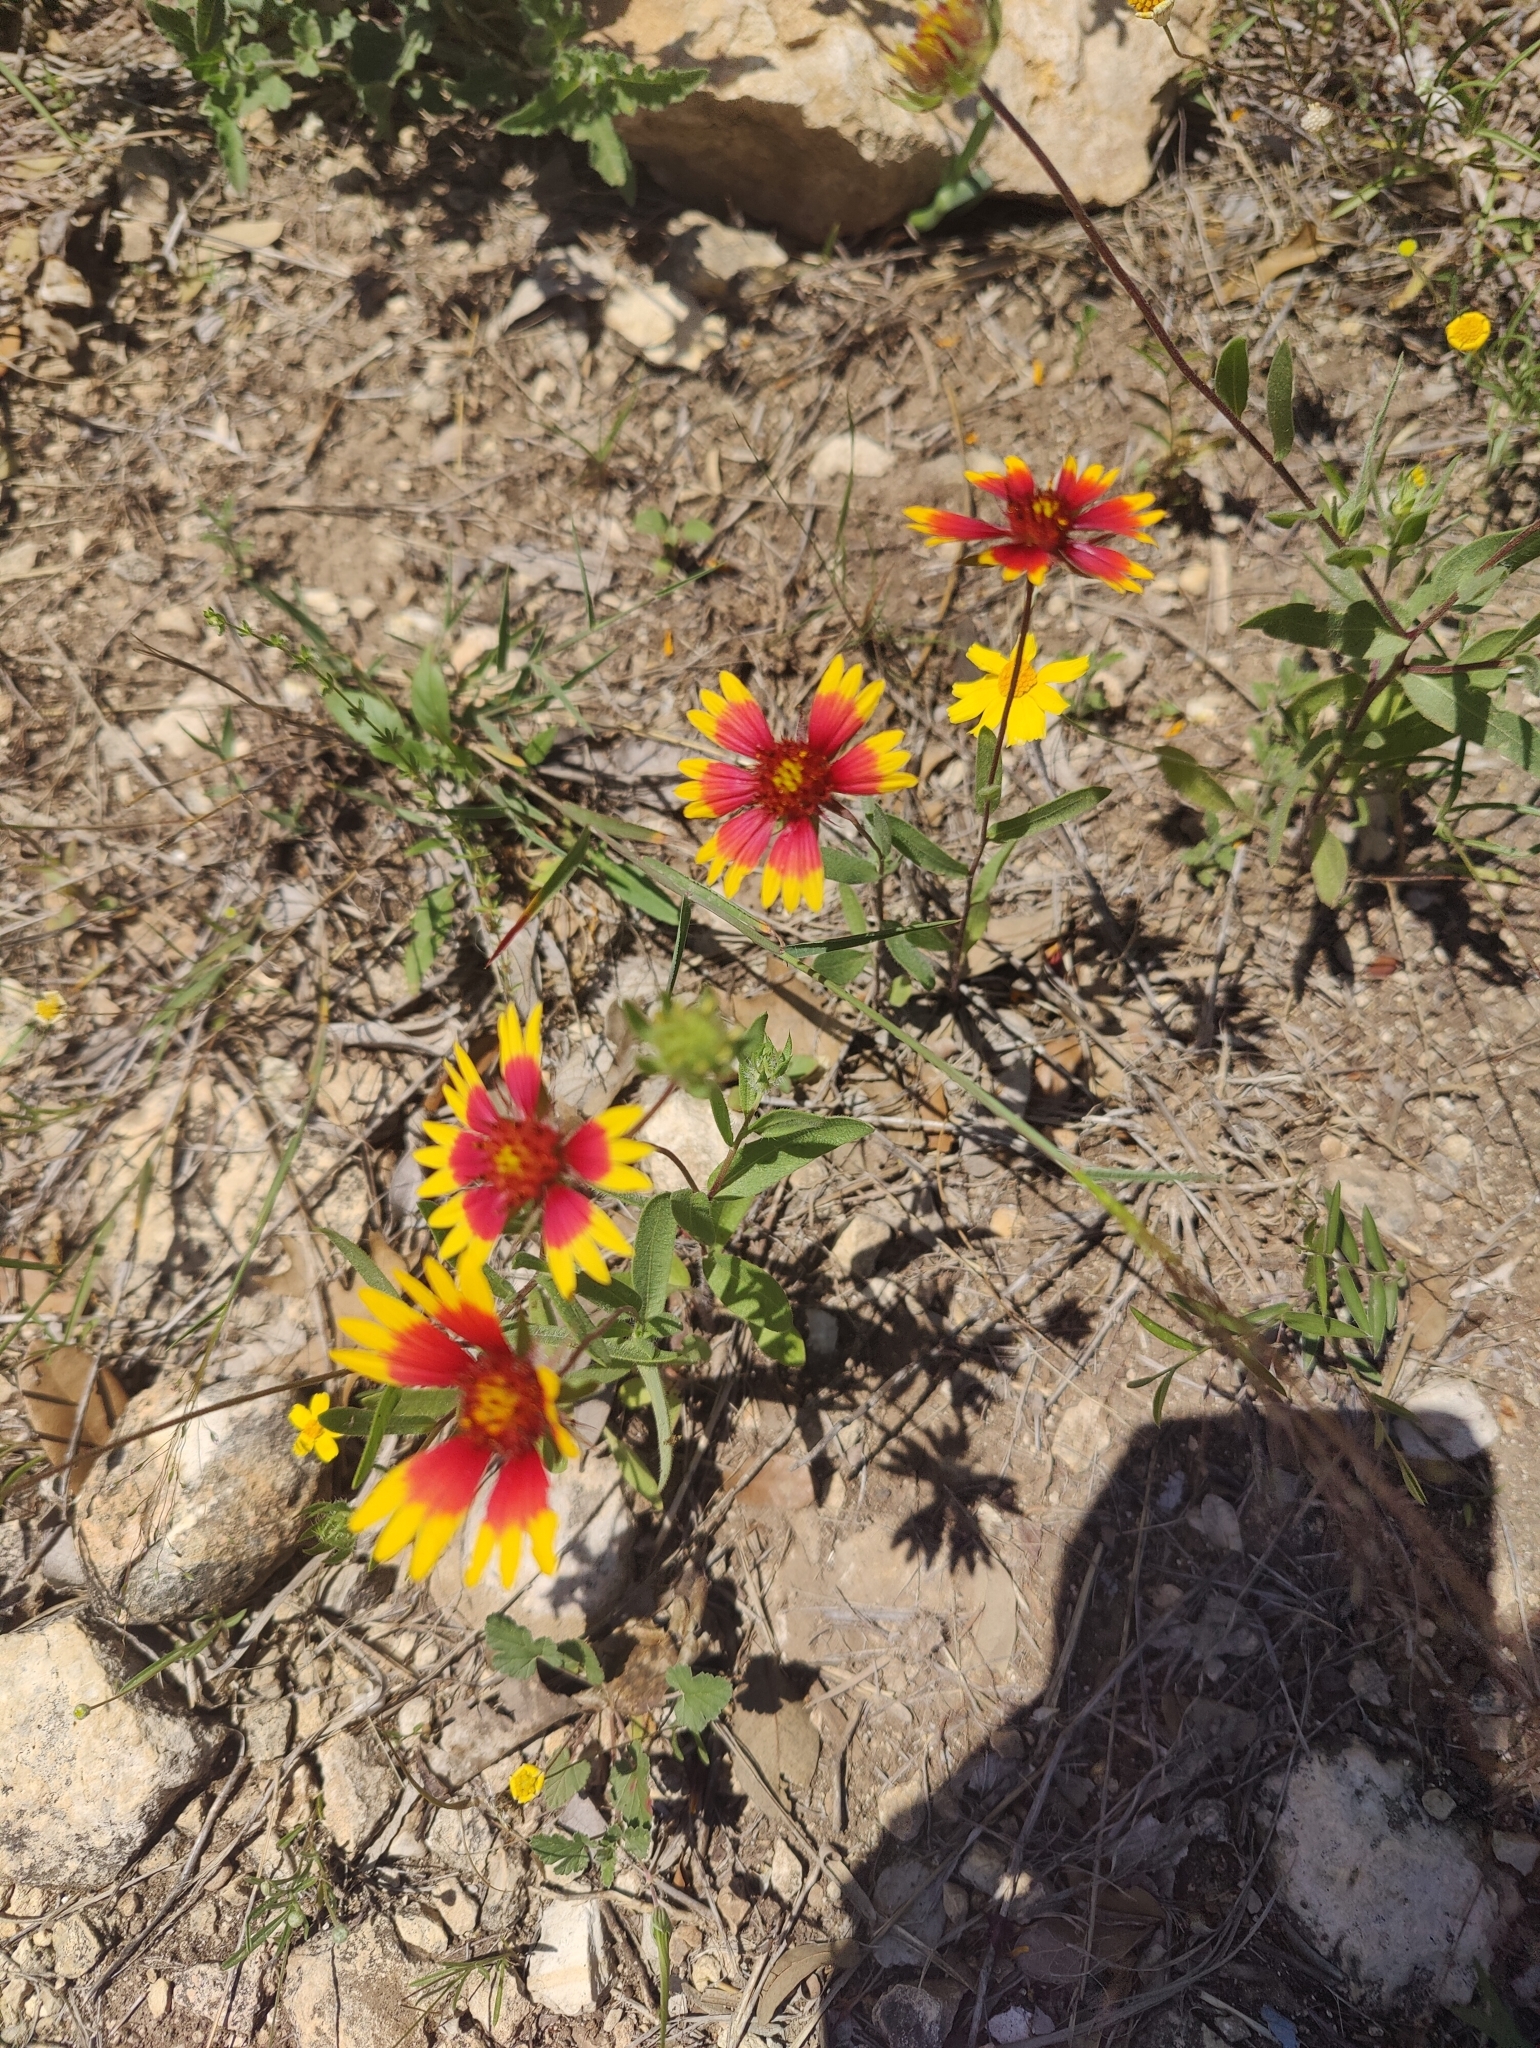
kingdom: Plantae
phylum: Tracheophyta
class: Magnoliopsida
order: Asterales
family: Asteraceae
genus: Gaillardia
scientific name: Gaillardia pulchella
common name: Firewheel
